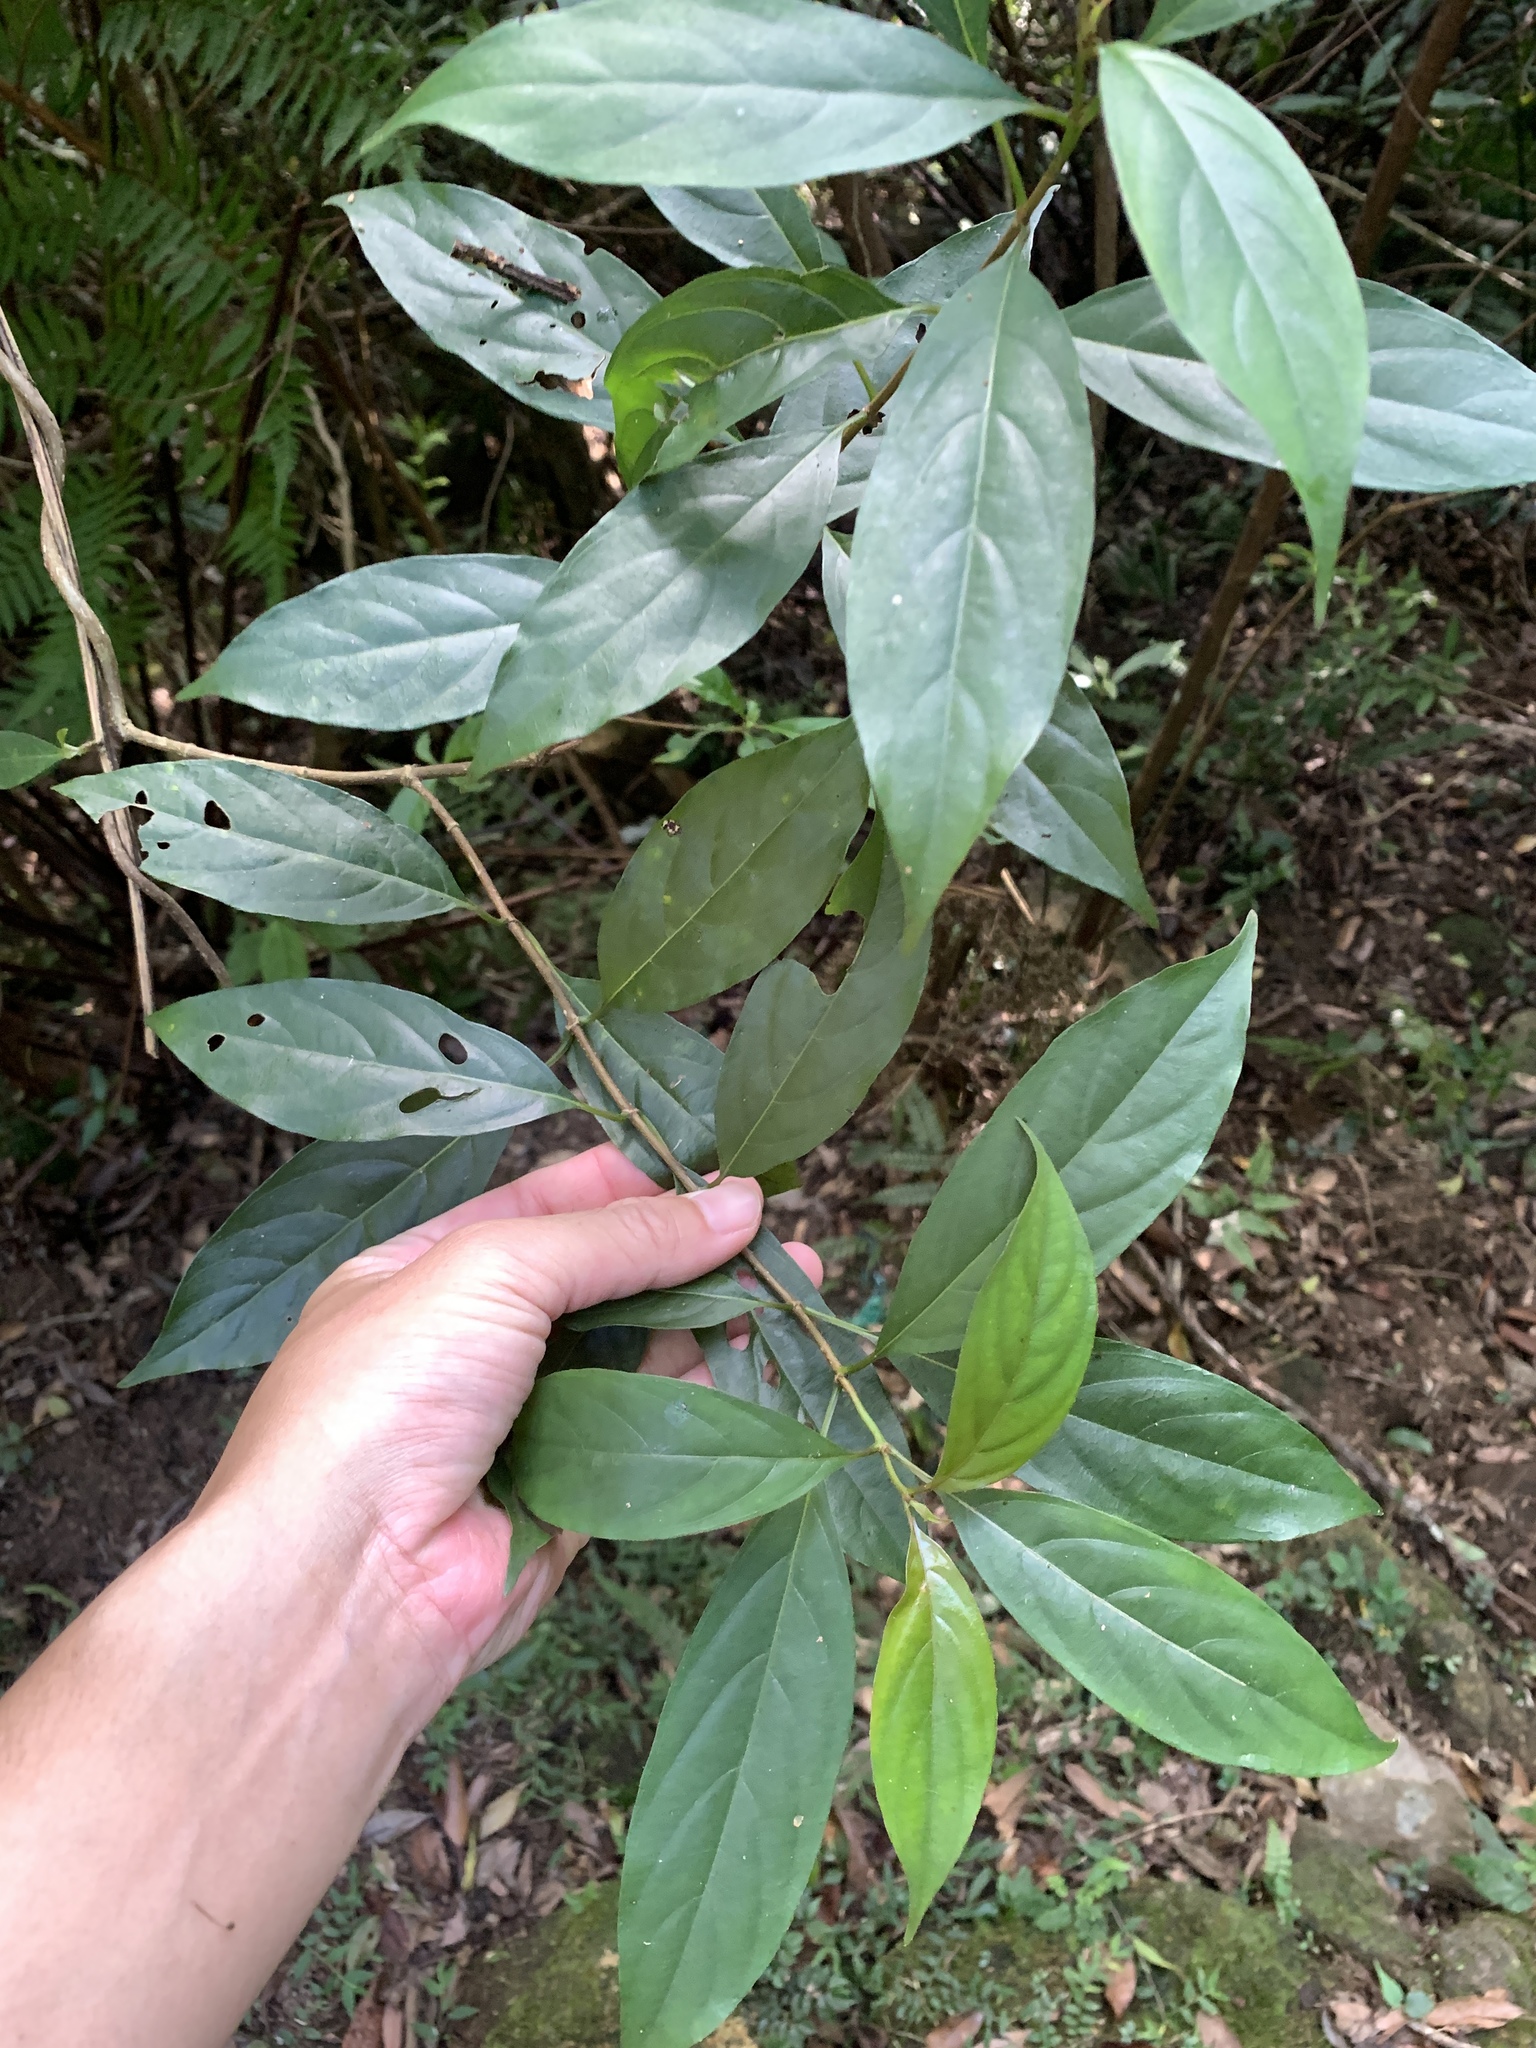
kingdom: Plantae
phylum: Tracheophyta
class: Magnoliopsida
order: Gentianales
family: Rubiaceae
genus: Wendlandia
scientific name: Wendlandia formosana
